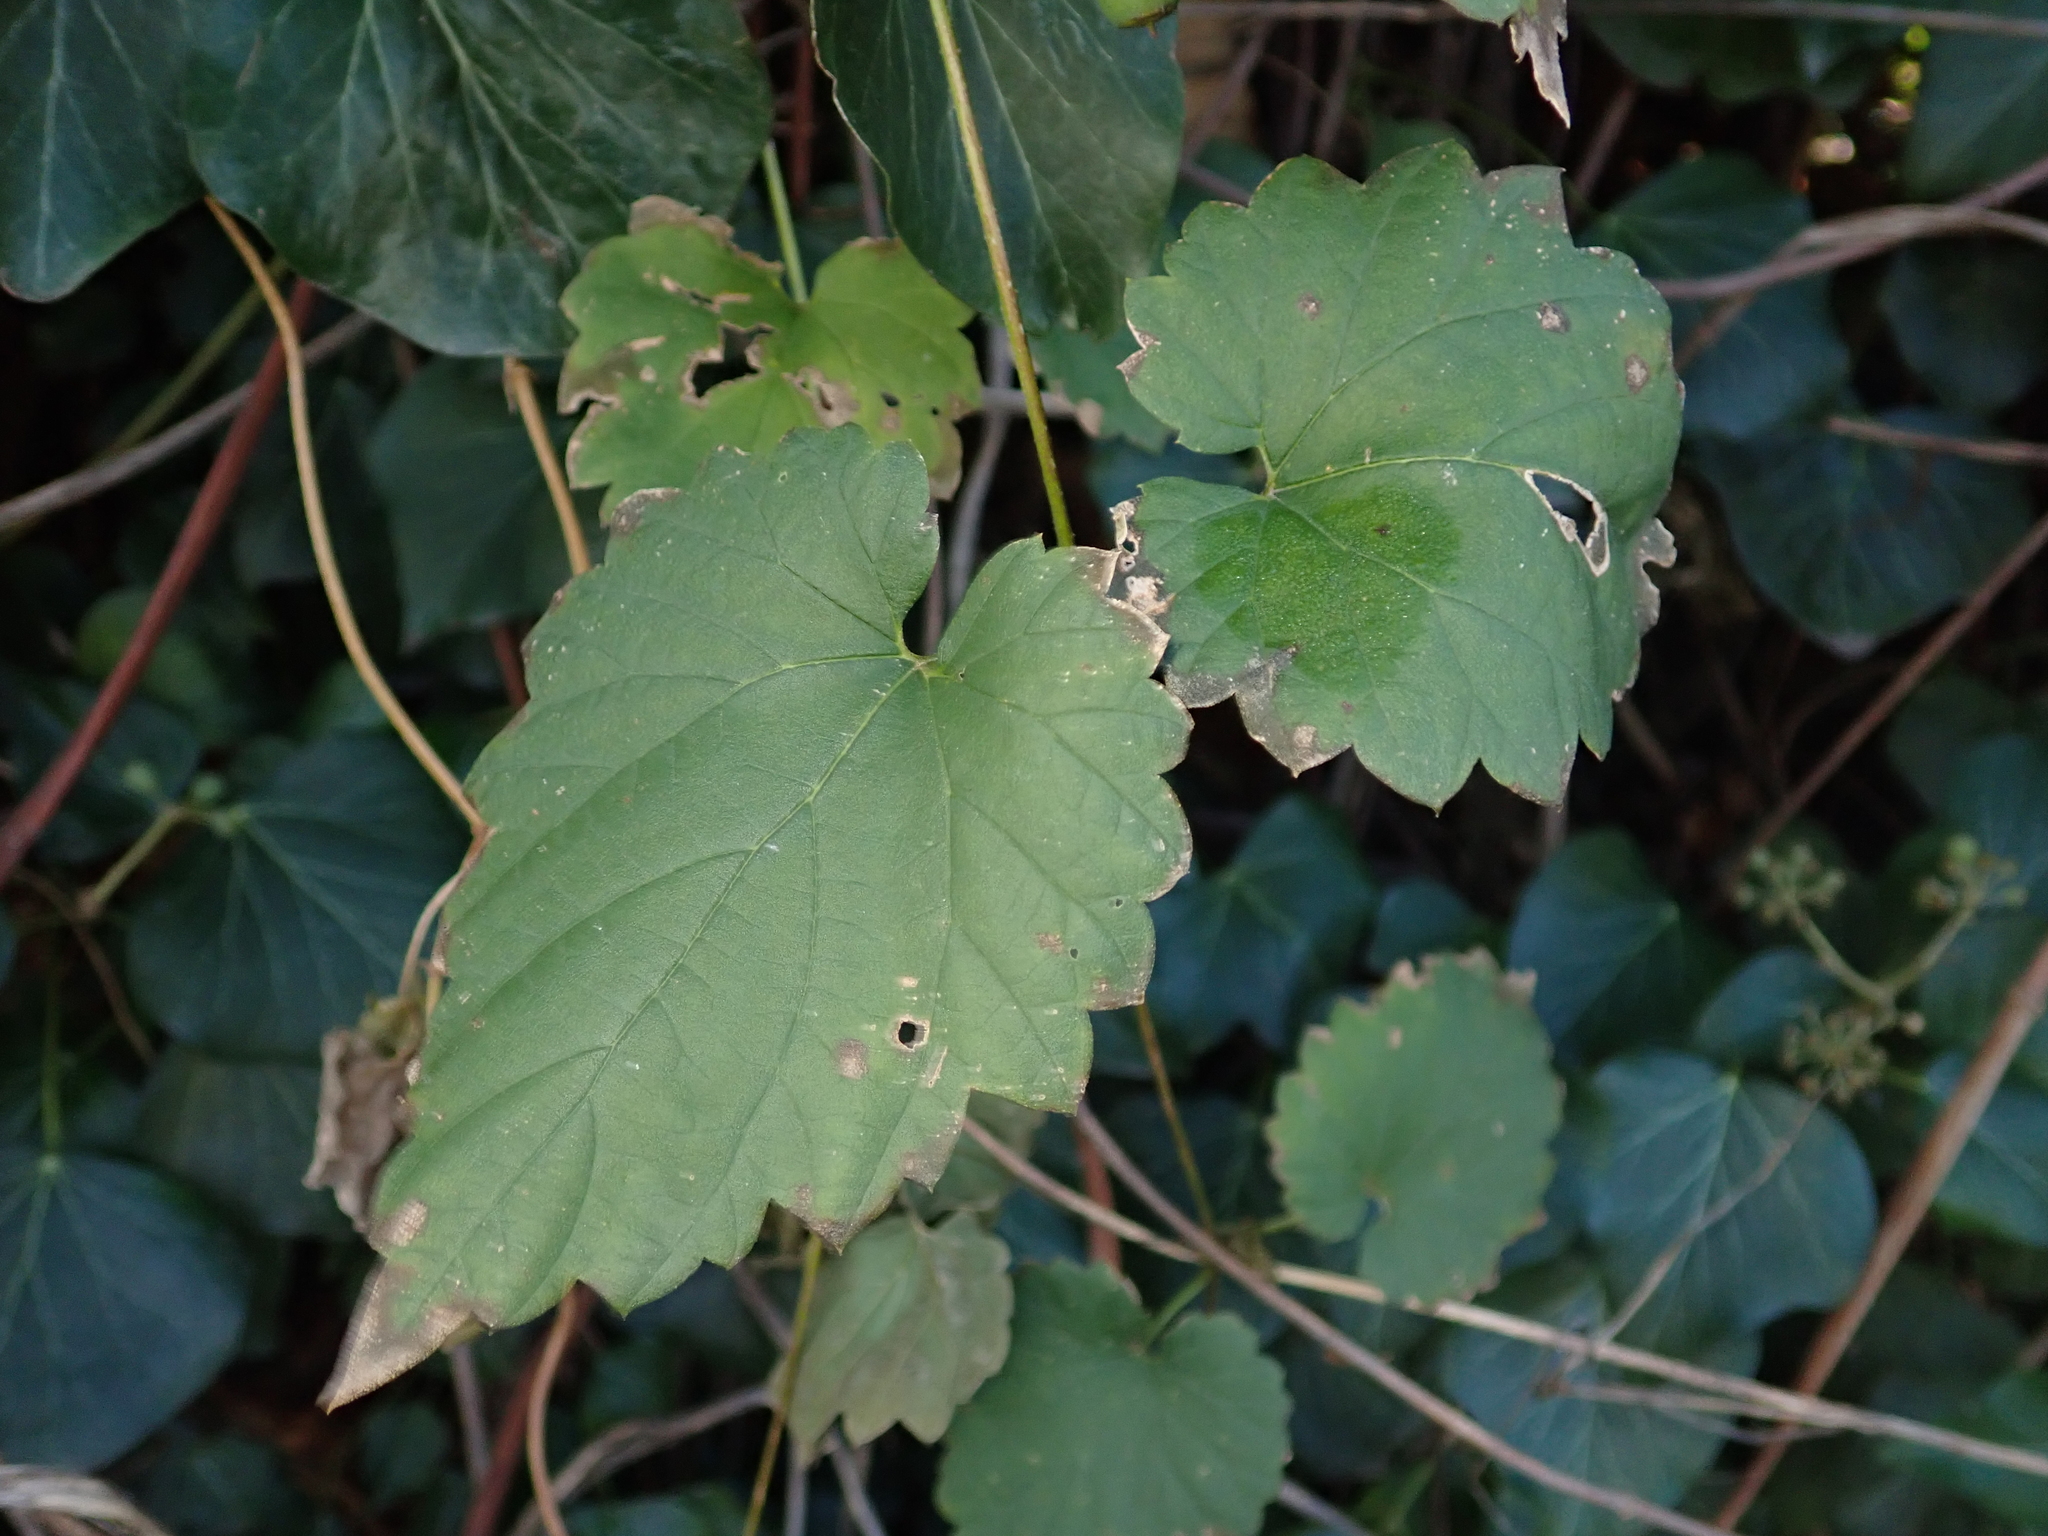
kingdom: Plantae
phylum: Tracheophyta
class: Magnoliopsida
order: Rosales
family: Cannabaceae
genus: Humulus
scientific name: Humulus lupulus
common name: Hop
